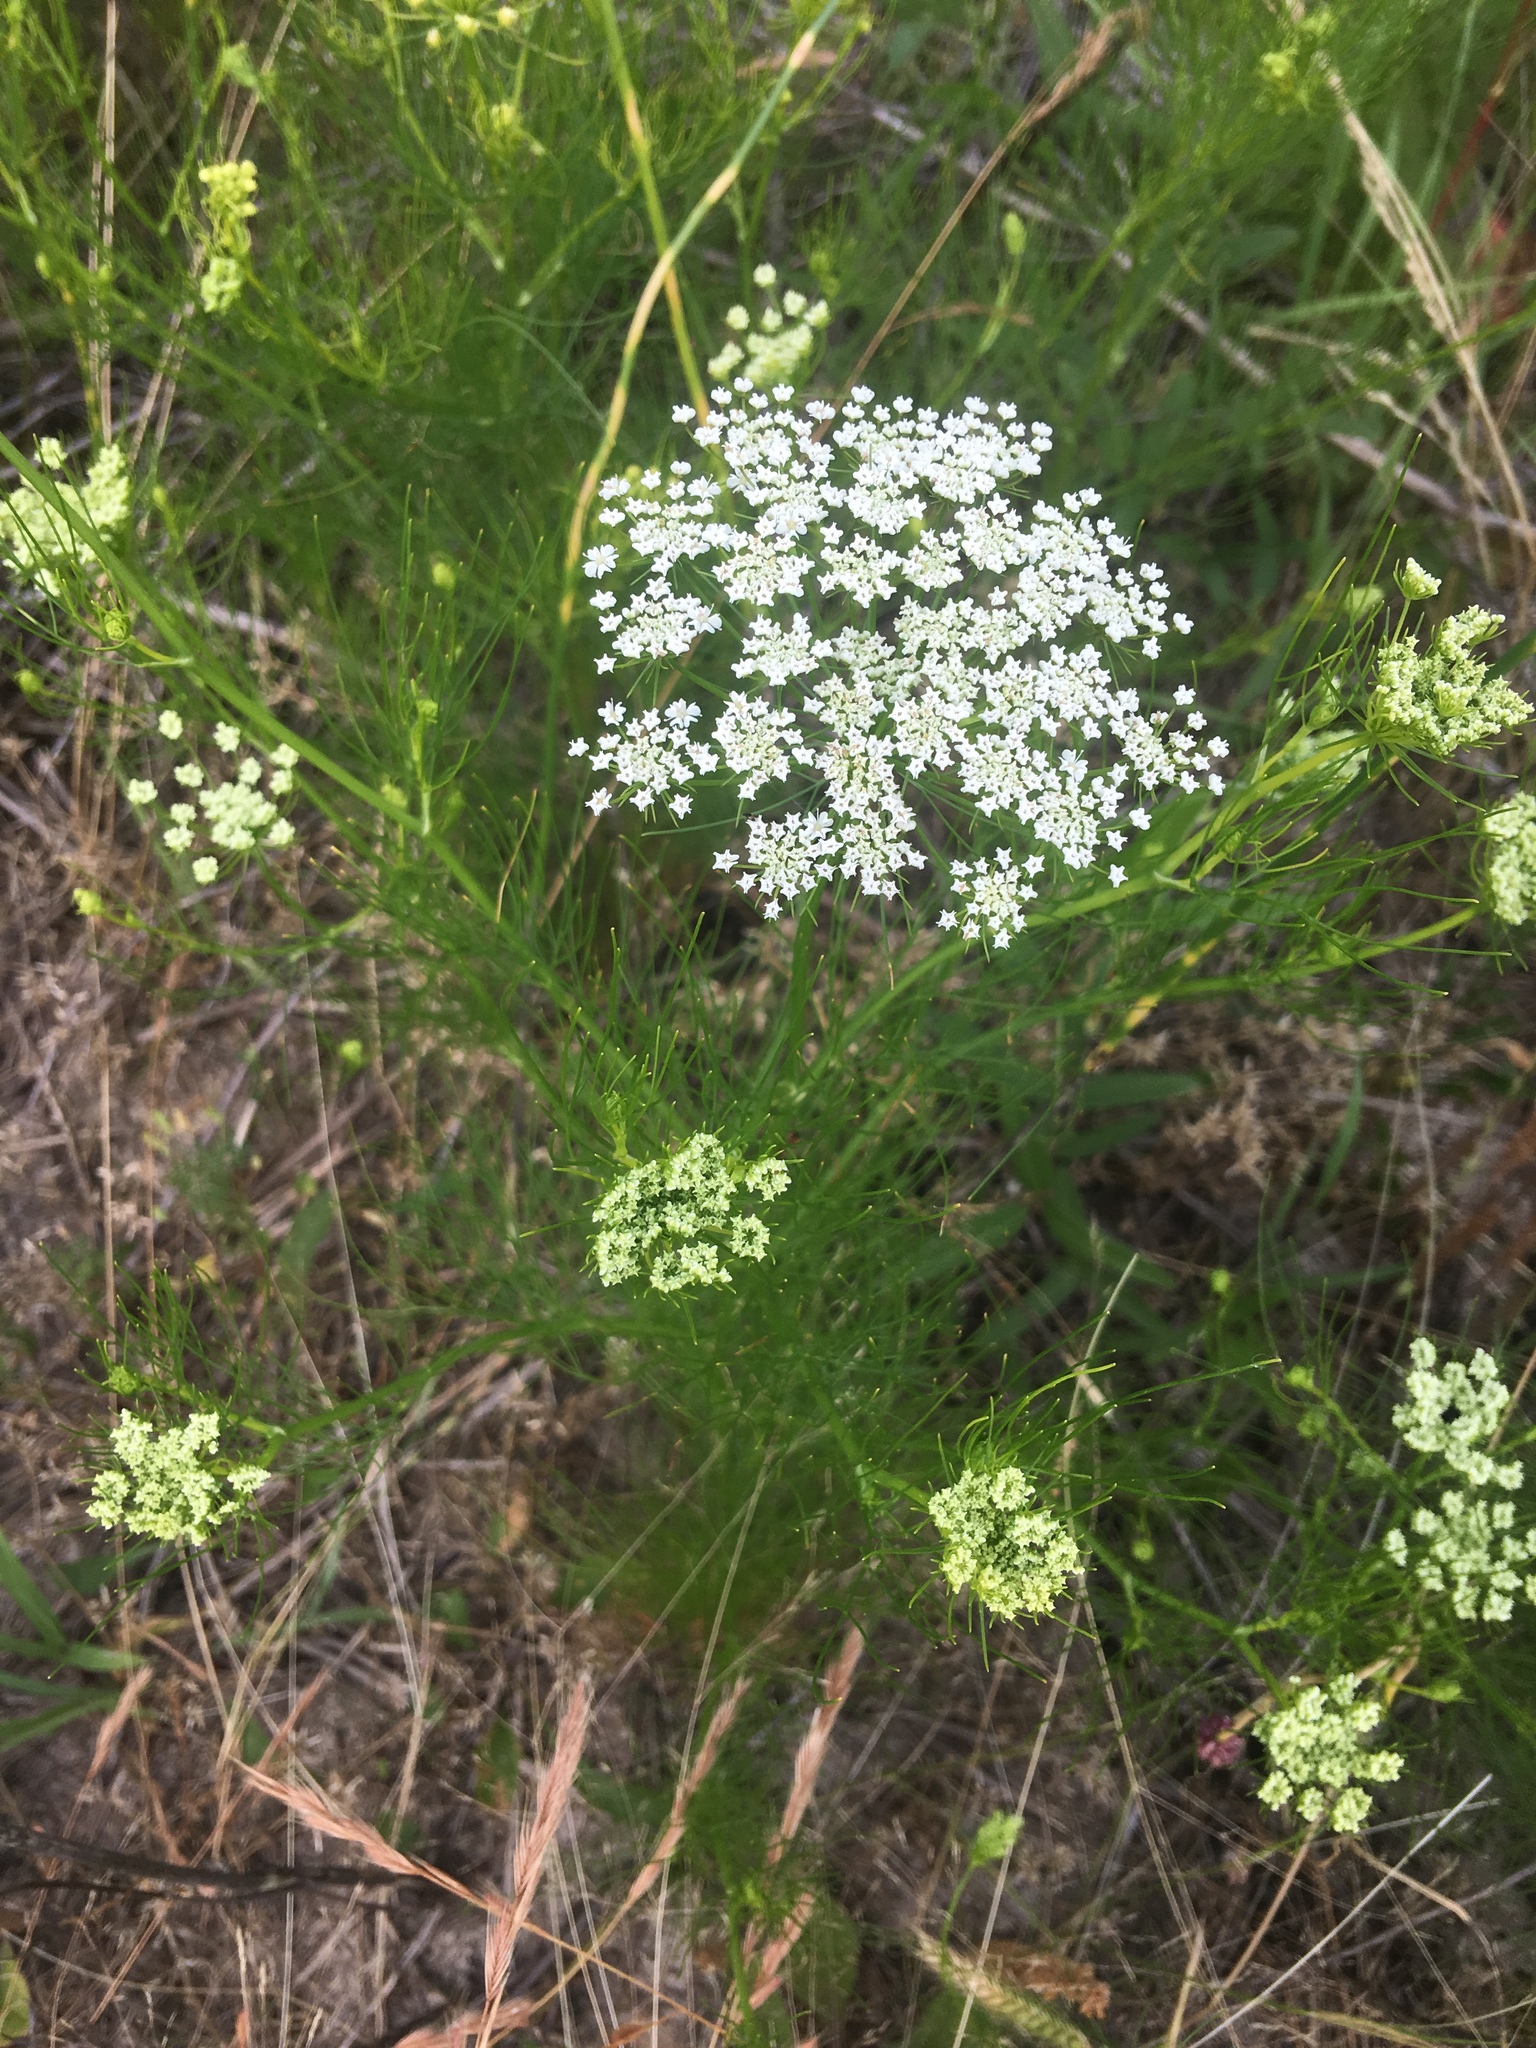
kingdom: Plantae
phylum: Tracheophyta
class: Magnoliopsida
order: Apiales
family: Apiaceae
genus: Daucus
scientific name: Daucus carota
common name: Wild carrot
